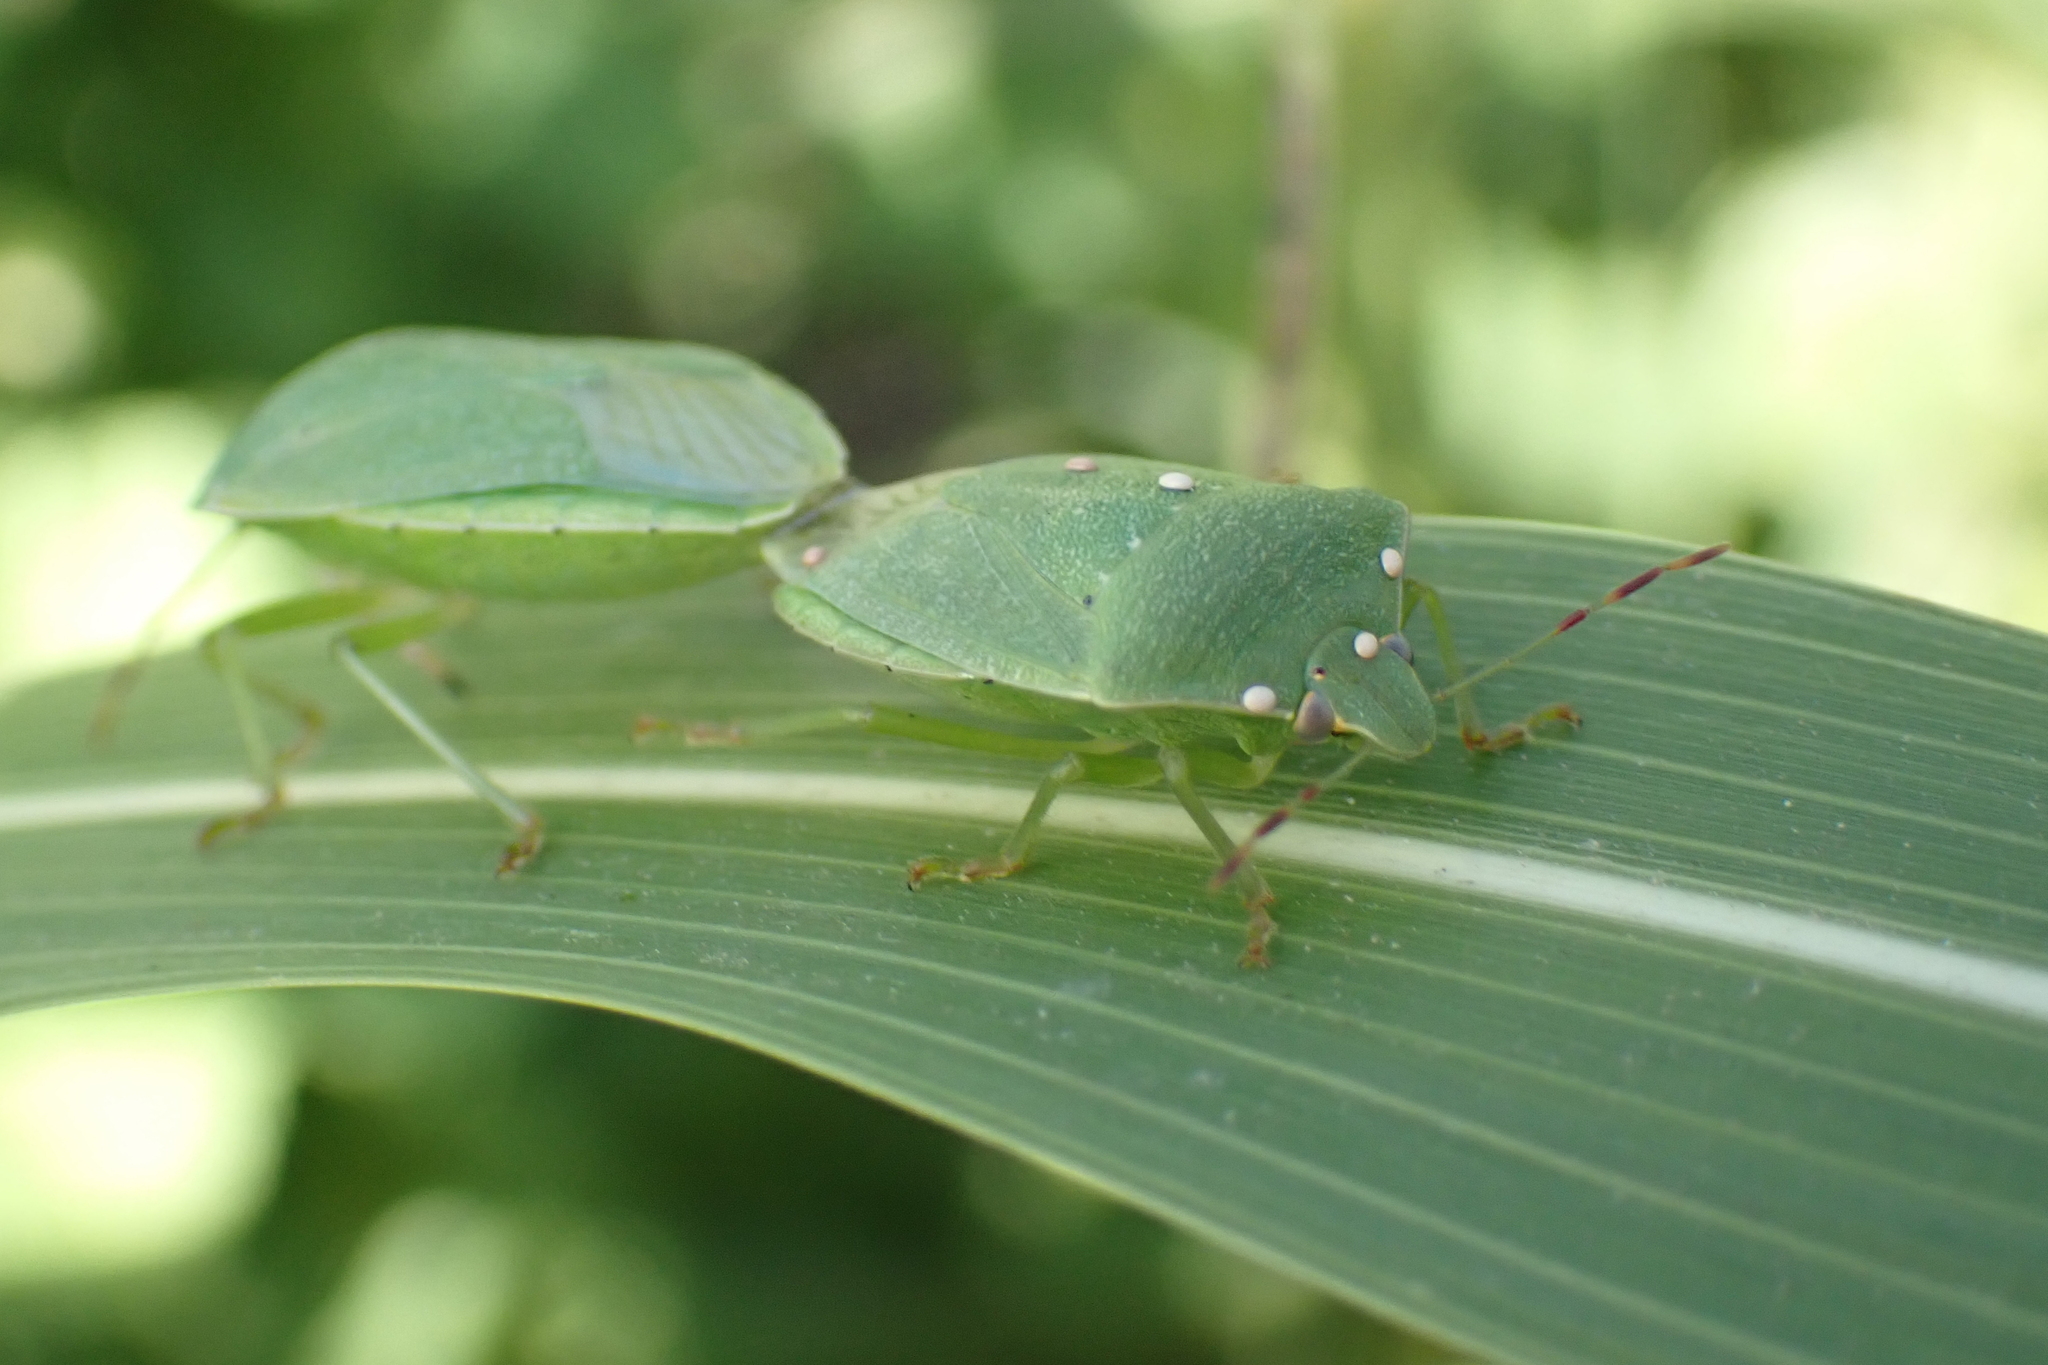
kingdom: Animalia
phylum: Arthropoda
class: Insecta
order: Hemiptera
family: Pentatomidae
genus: Nezara
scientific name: Nezara viridula
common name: Southern green stink bug
